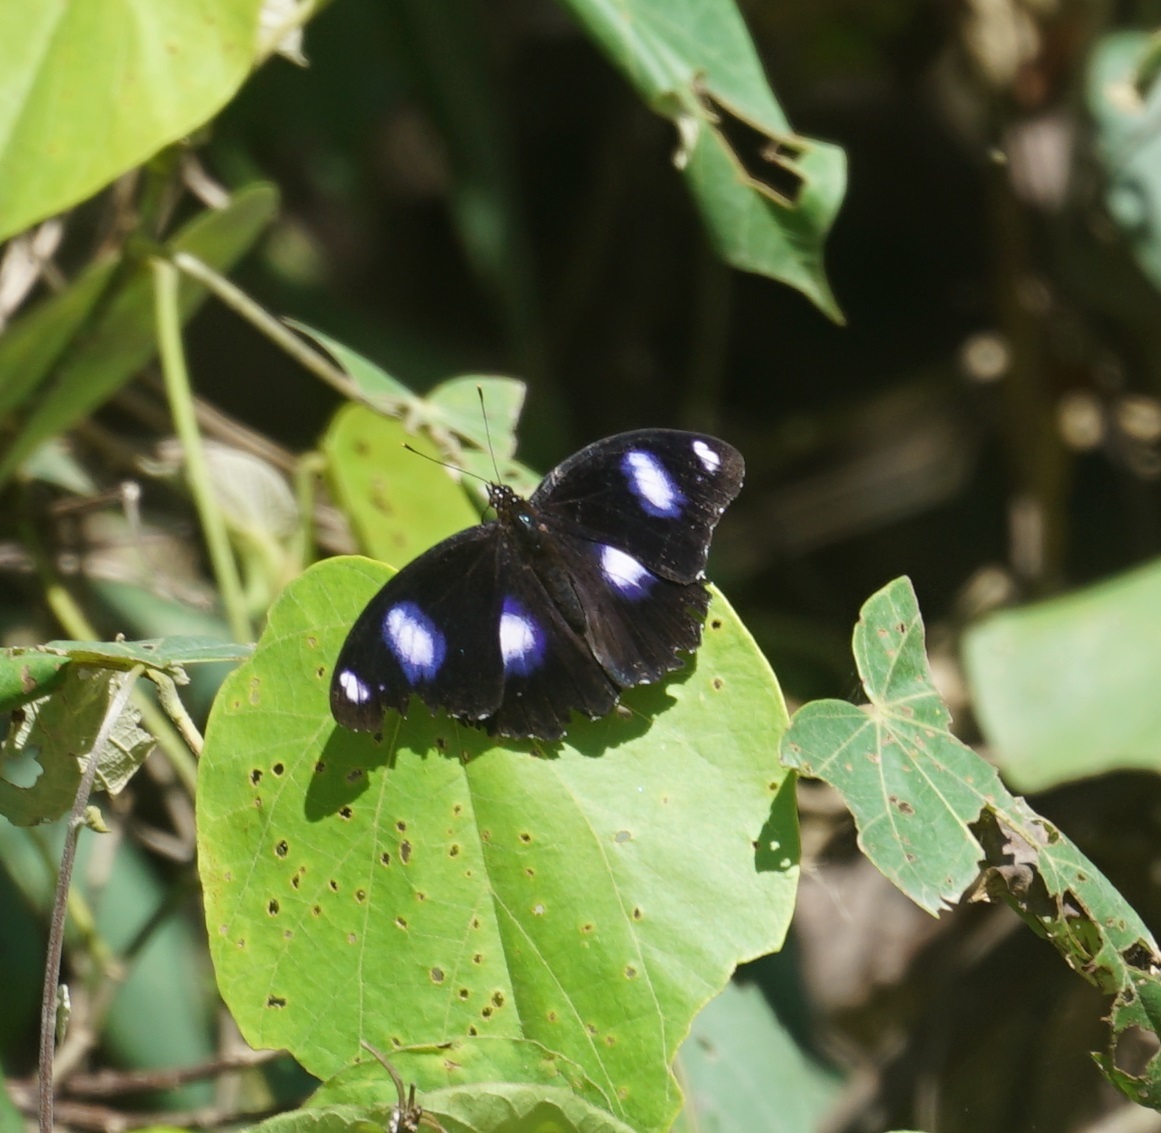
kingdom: Animalia
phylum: Arthropoda
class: Insecta
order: Lepidoptera
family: Nymphalidae
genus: Hypolimnas
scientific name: Hypolimnas bolina
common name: Great eggfly
